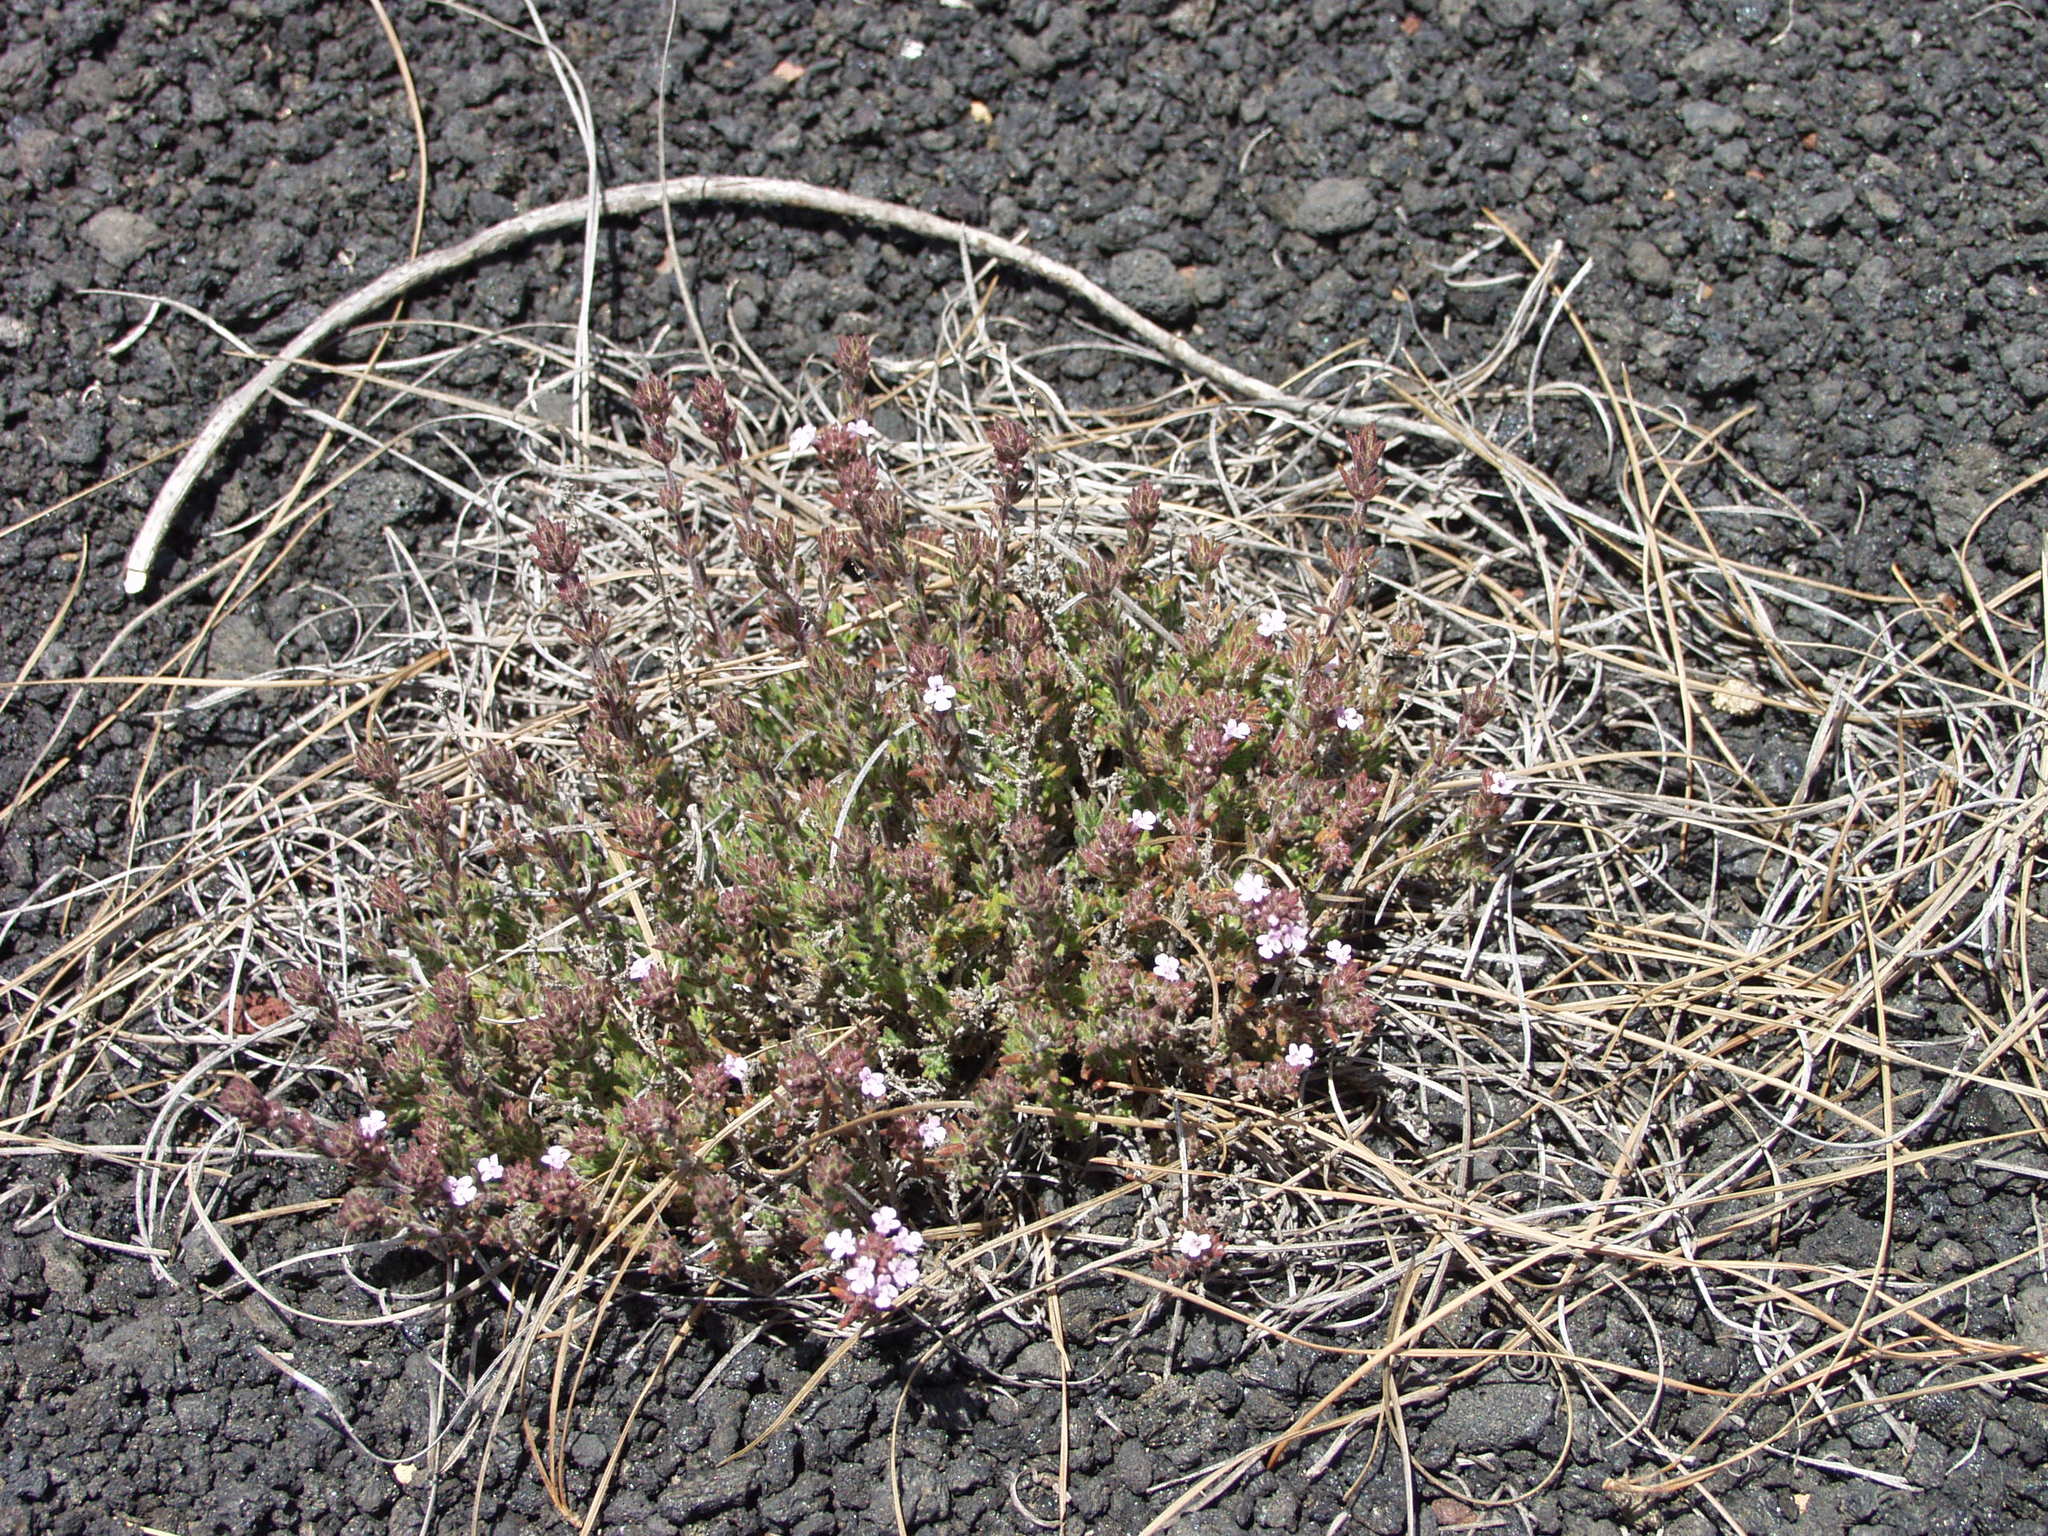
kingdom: Plantae
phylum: Tracheophyta
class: Magnoliopsida
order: Lamiales
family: Lamiaceae
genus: Micromeria
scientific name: Micromeria herpyllomorpha
